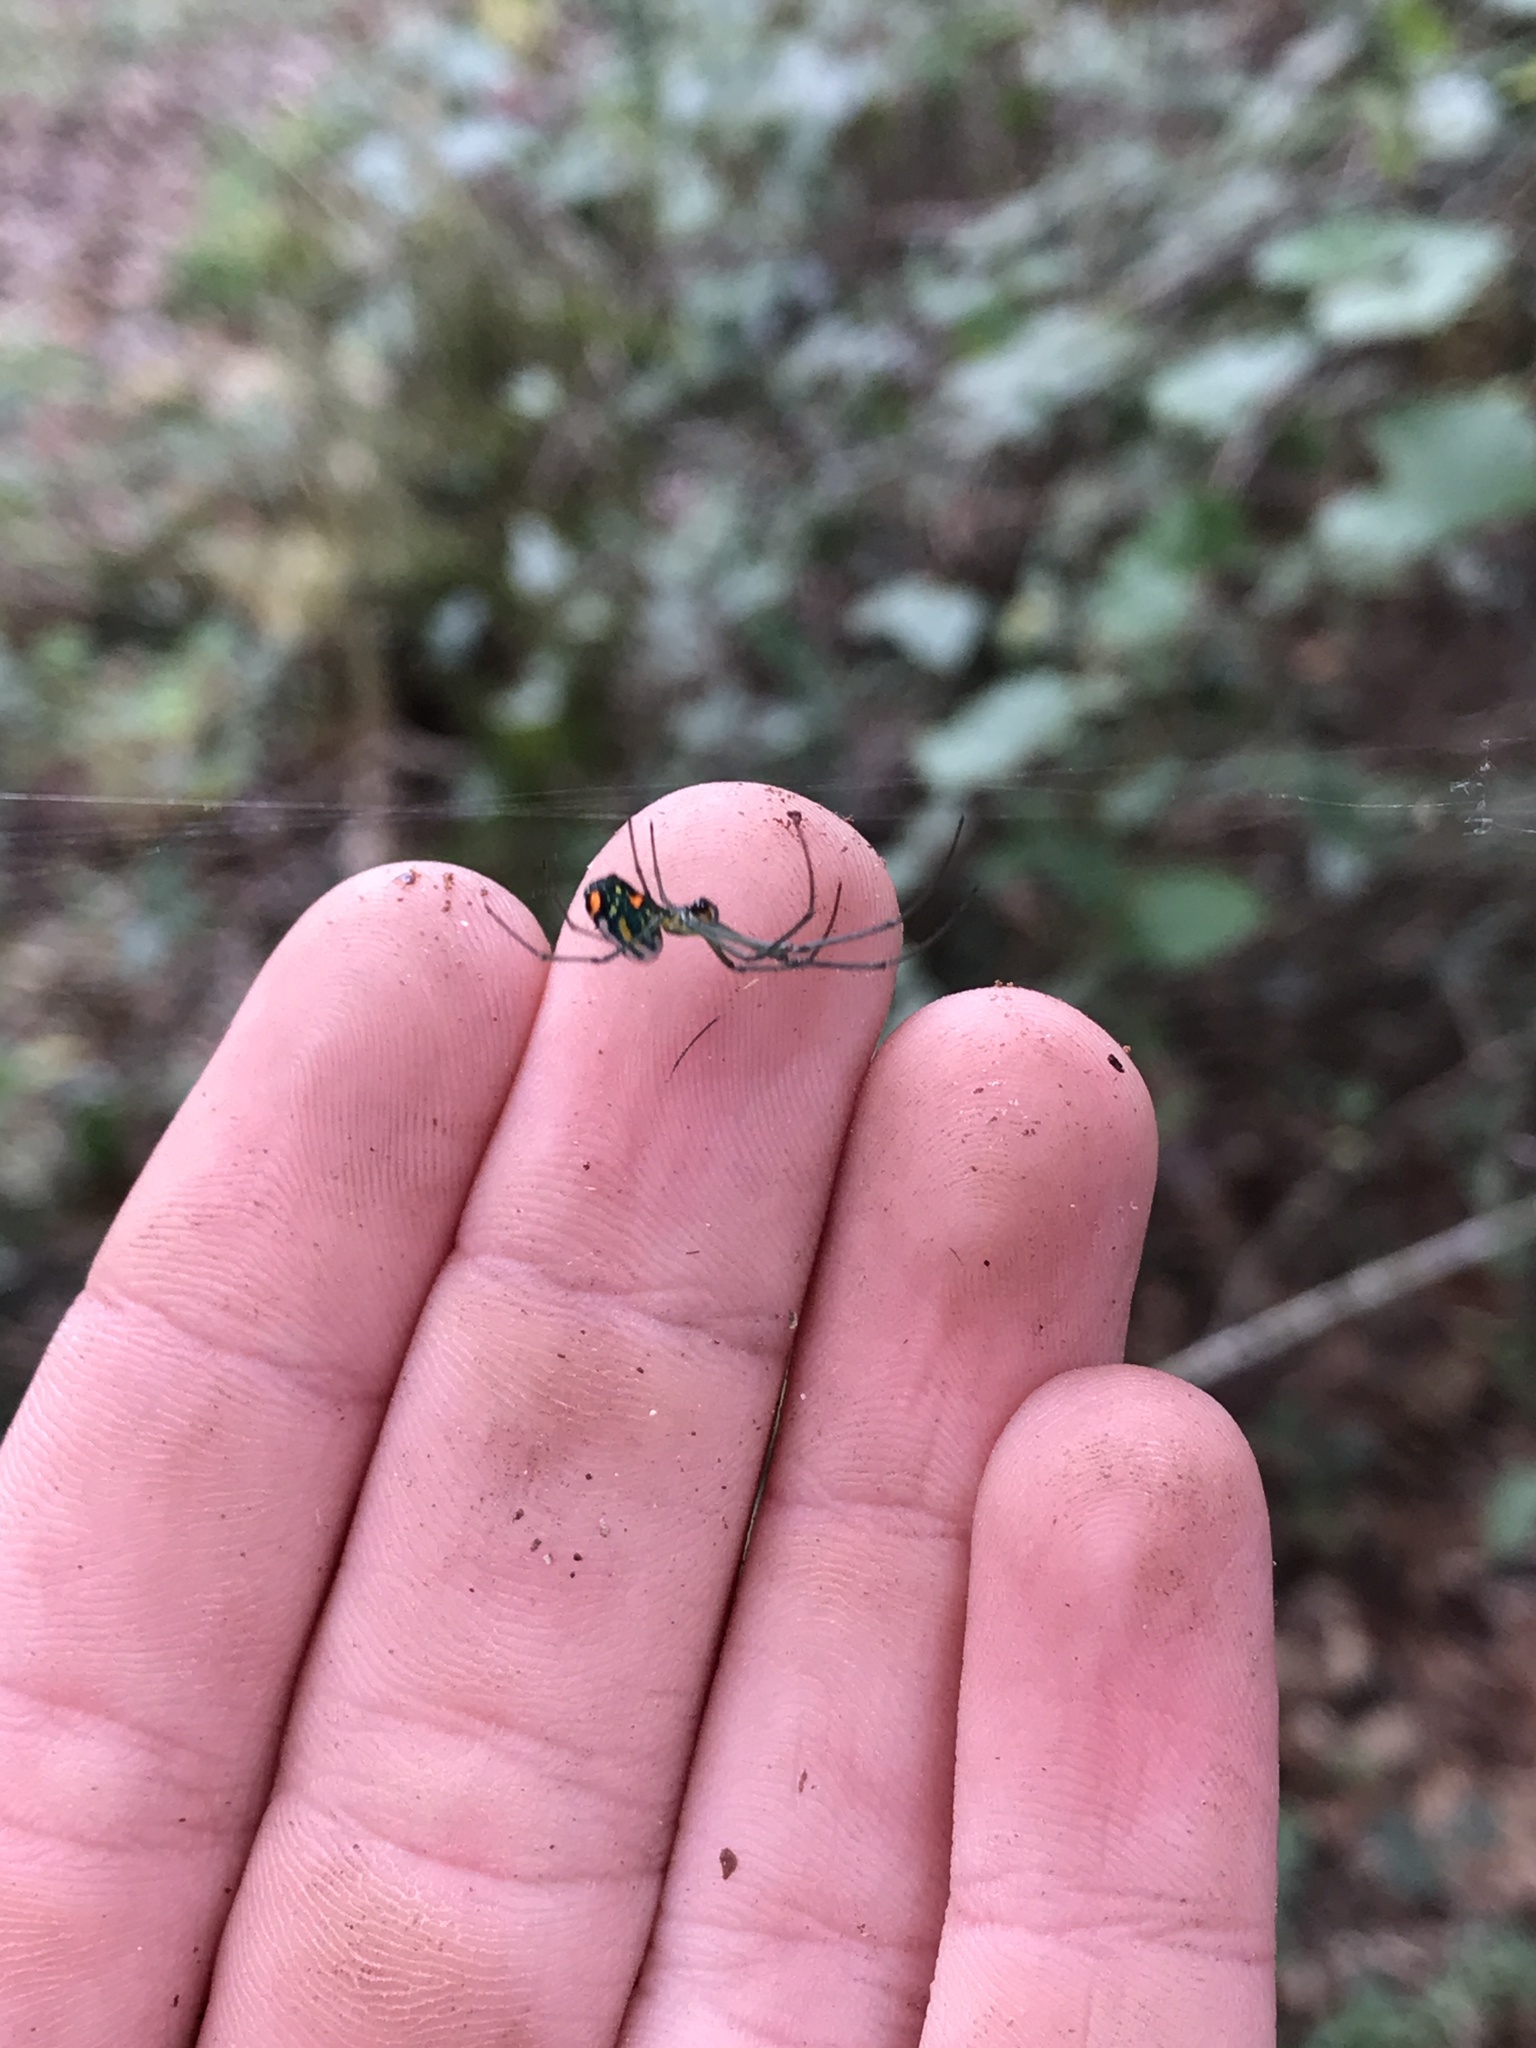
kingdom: Animalia
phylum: Arthropoda
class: Arachnida
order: Araneae
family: Tetragnathidae
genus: Leucauge
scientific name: Leucauge argyrobapta
